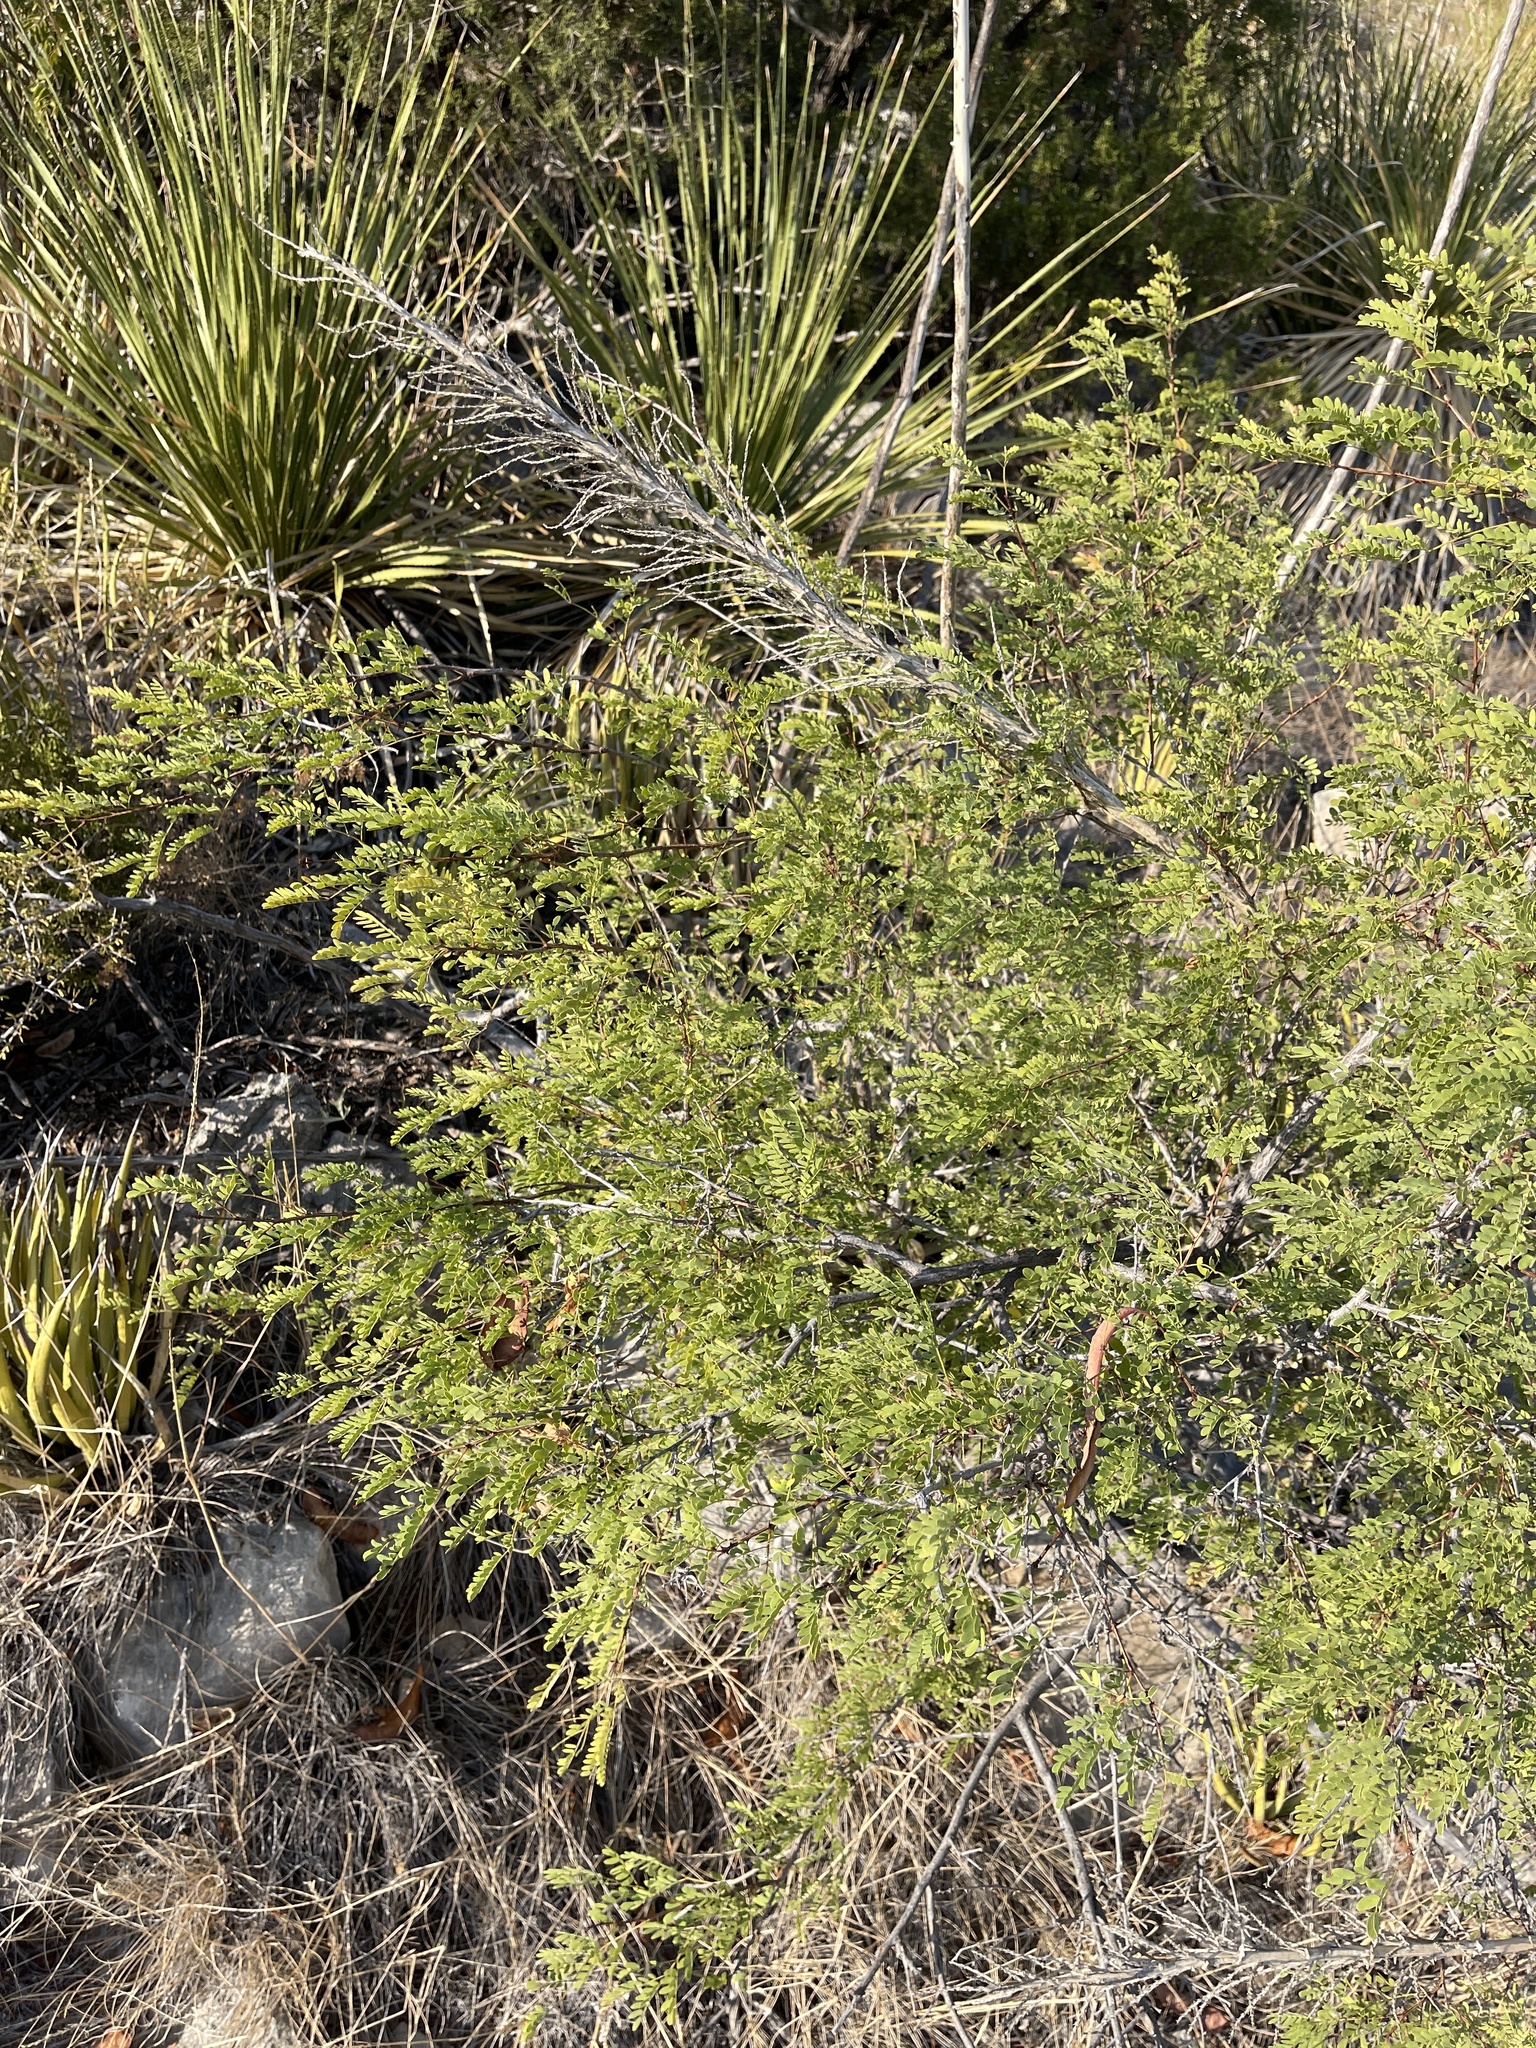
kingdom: Plantae
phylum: Tracheophyta
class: Magnoliopsida
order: Fabales
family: Fabaceae
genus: Senegalia
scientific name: Senegalia roemeriana
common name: Roemer's acacia
